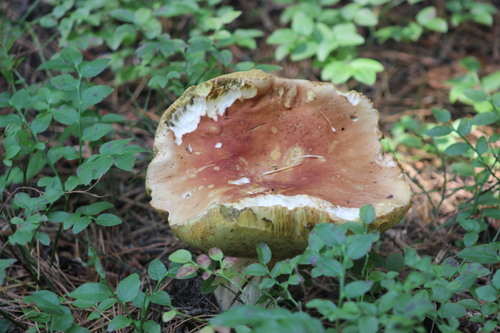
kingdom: Fungi
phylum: Basidiomycota
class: Agaricomycetes
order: Boletales
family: Boletaceae
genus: Boletus
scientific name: Boletus edulis
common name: Cep
